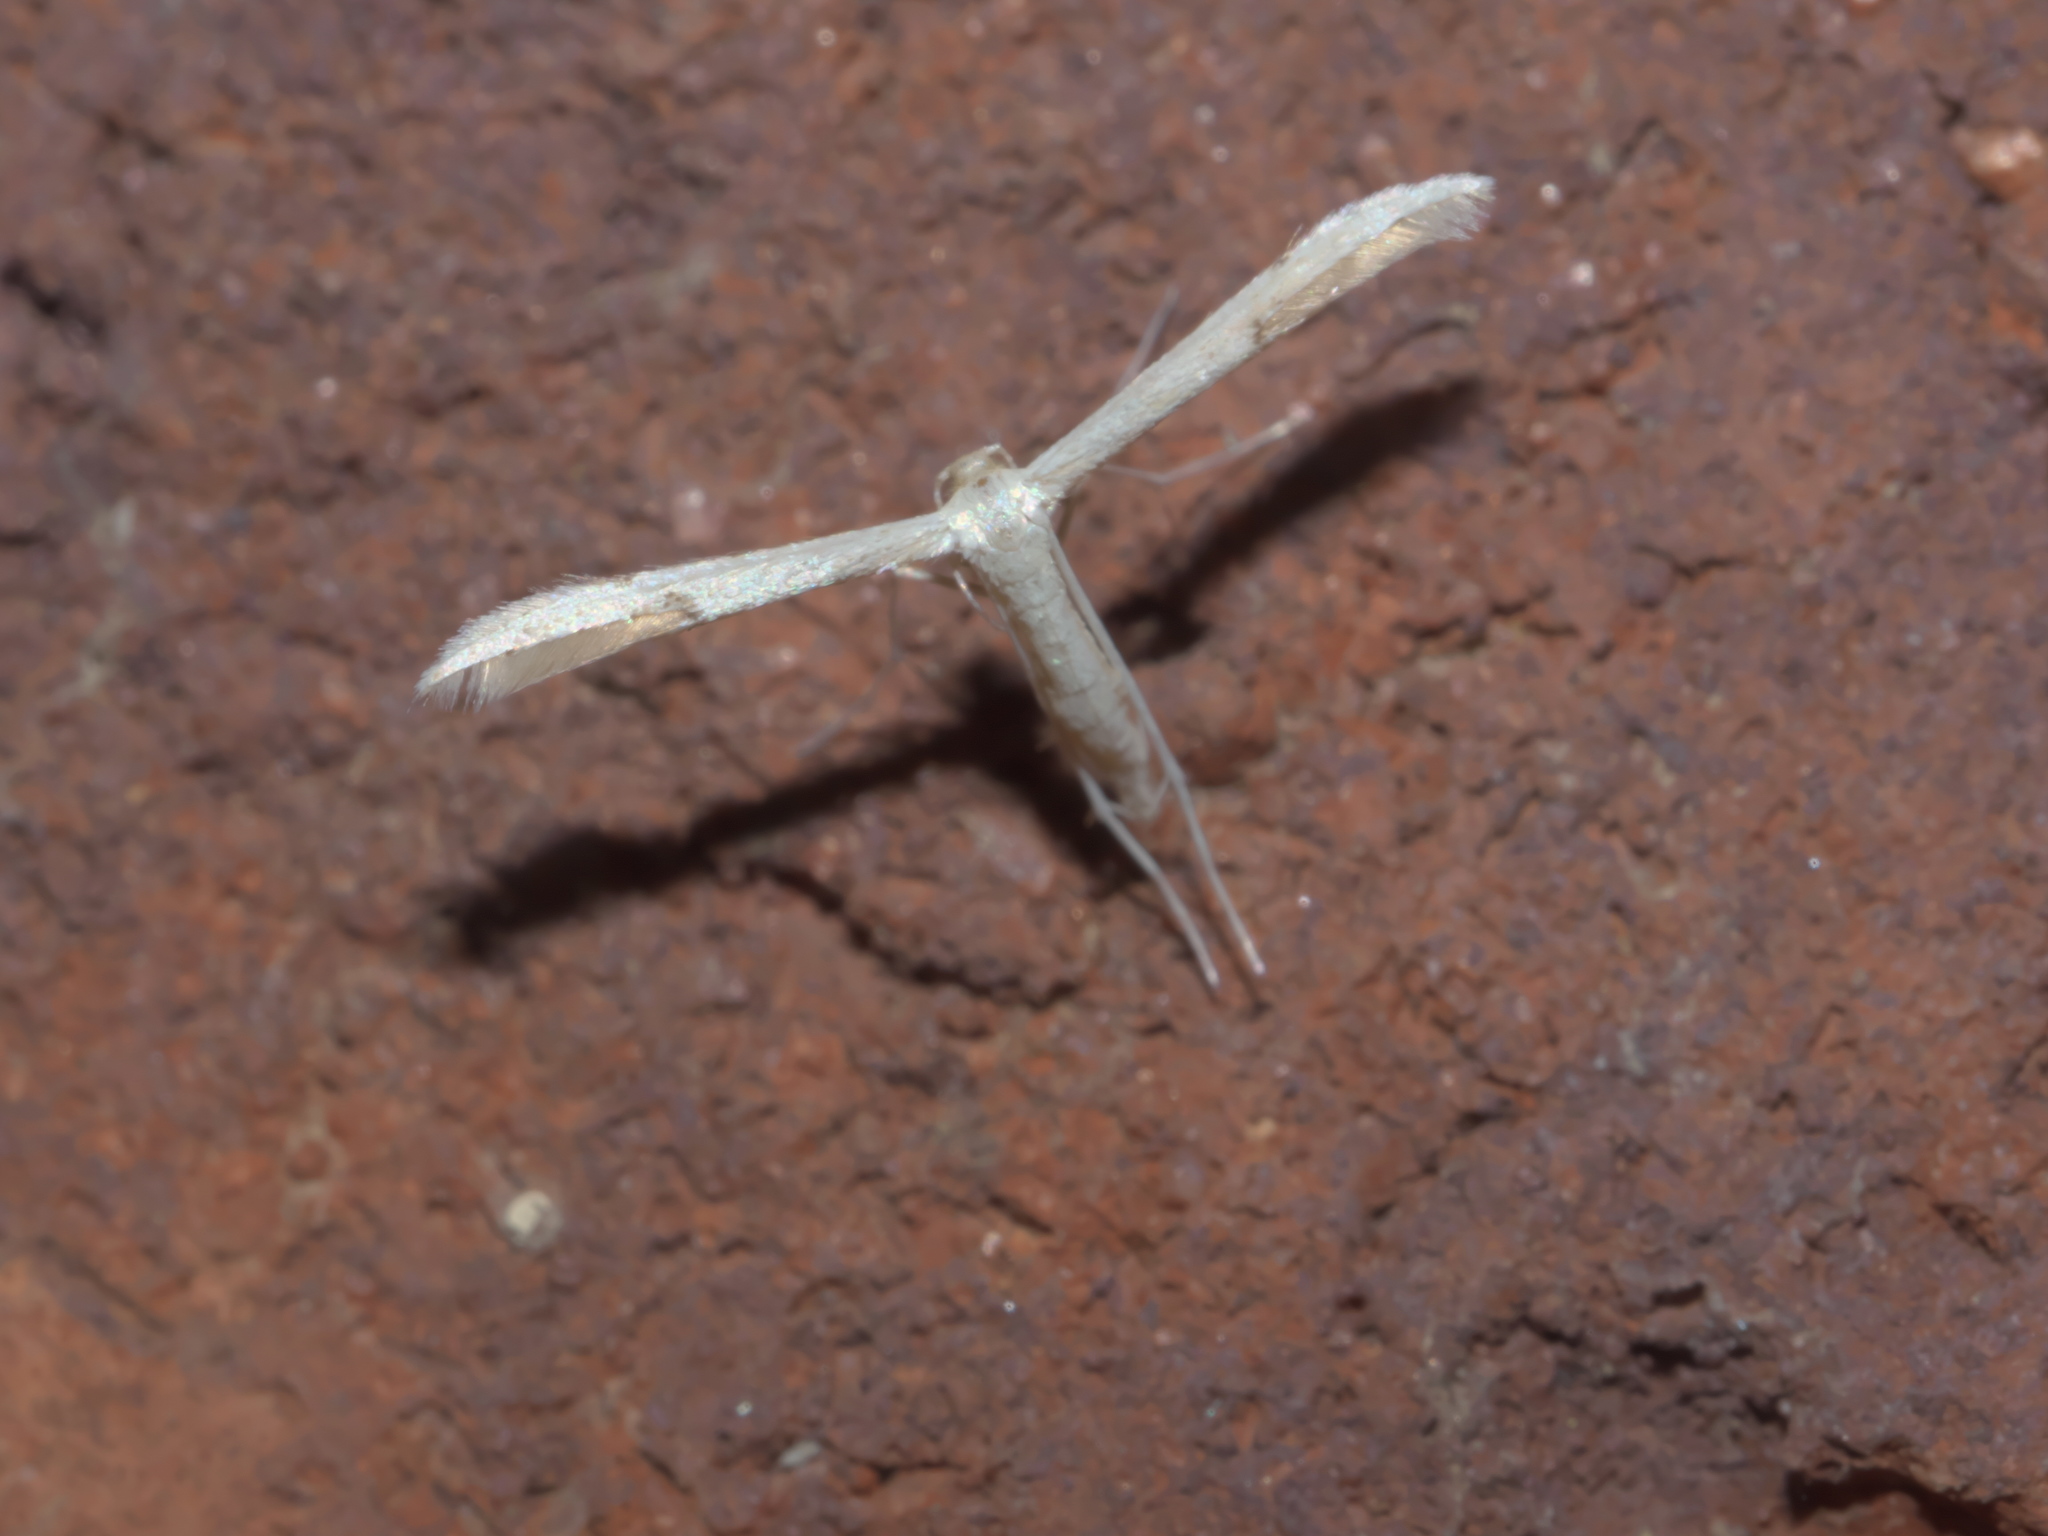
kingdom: Animalia
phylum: Arthropoda
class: Insecta
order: Lepidoptera
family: Pterophoridae
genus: Adaina
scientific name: Adaina
